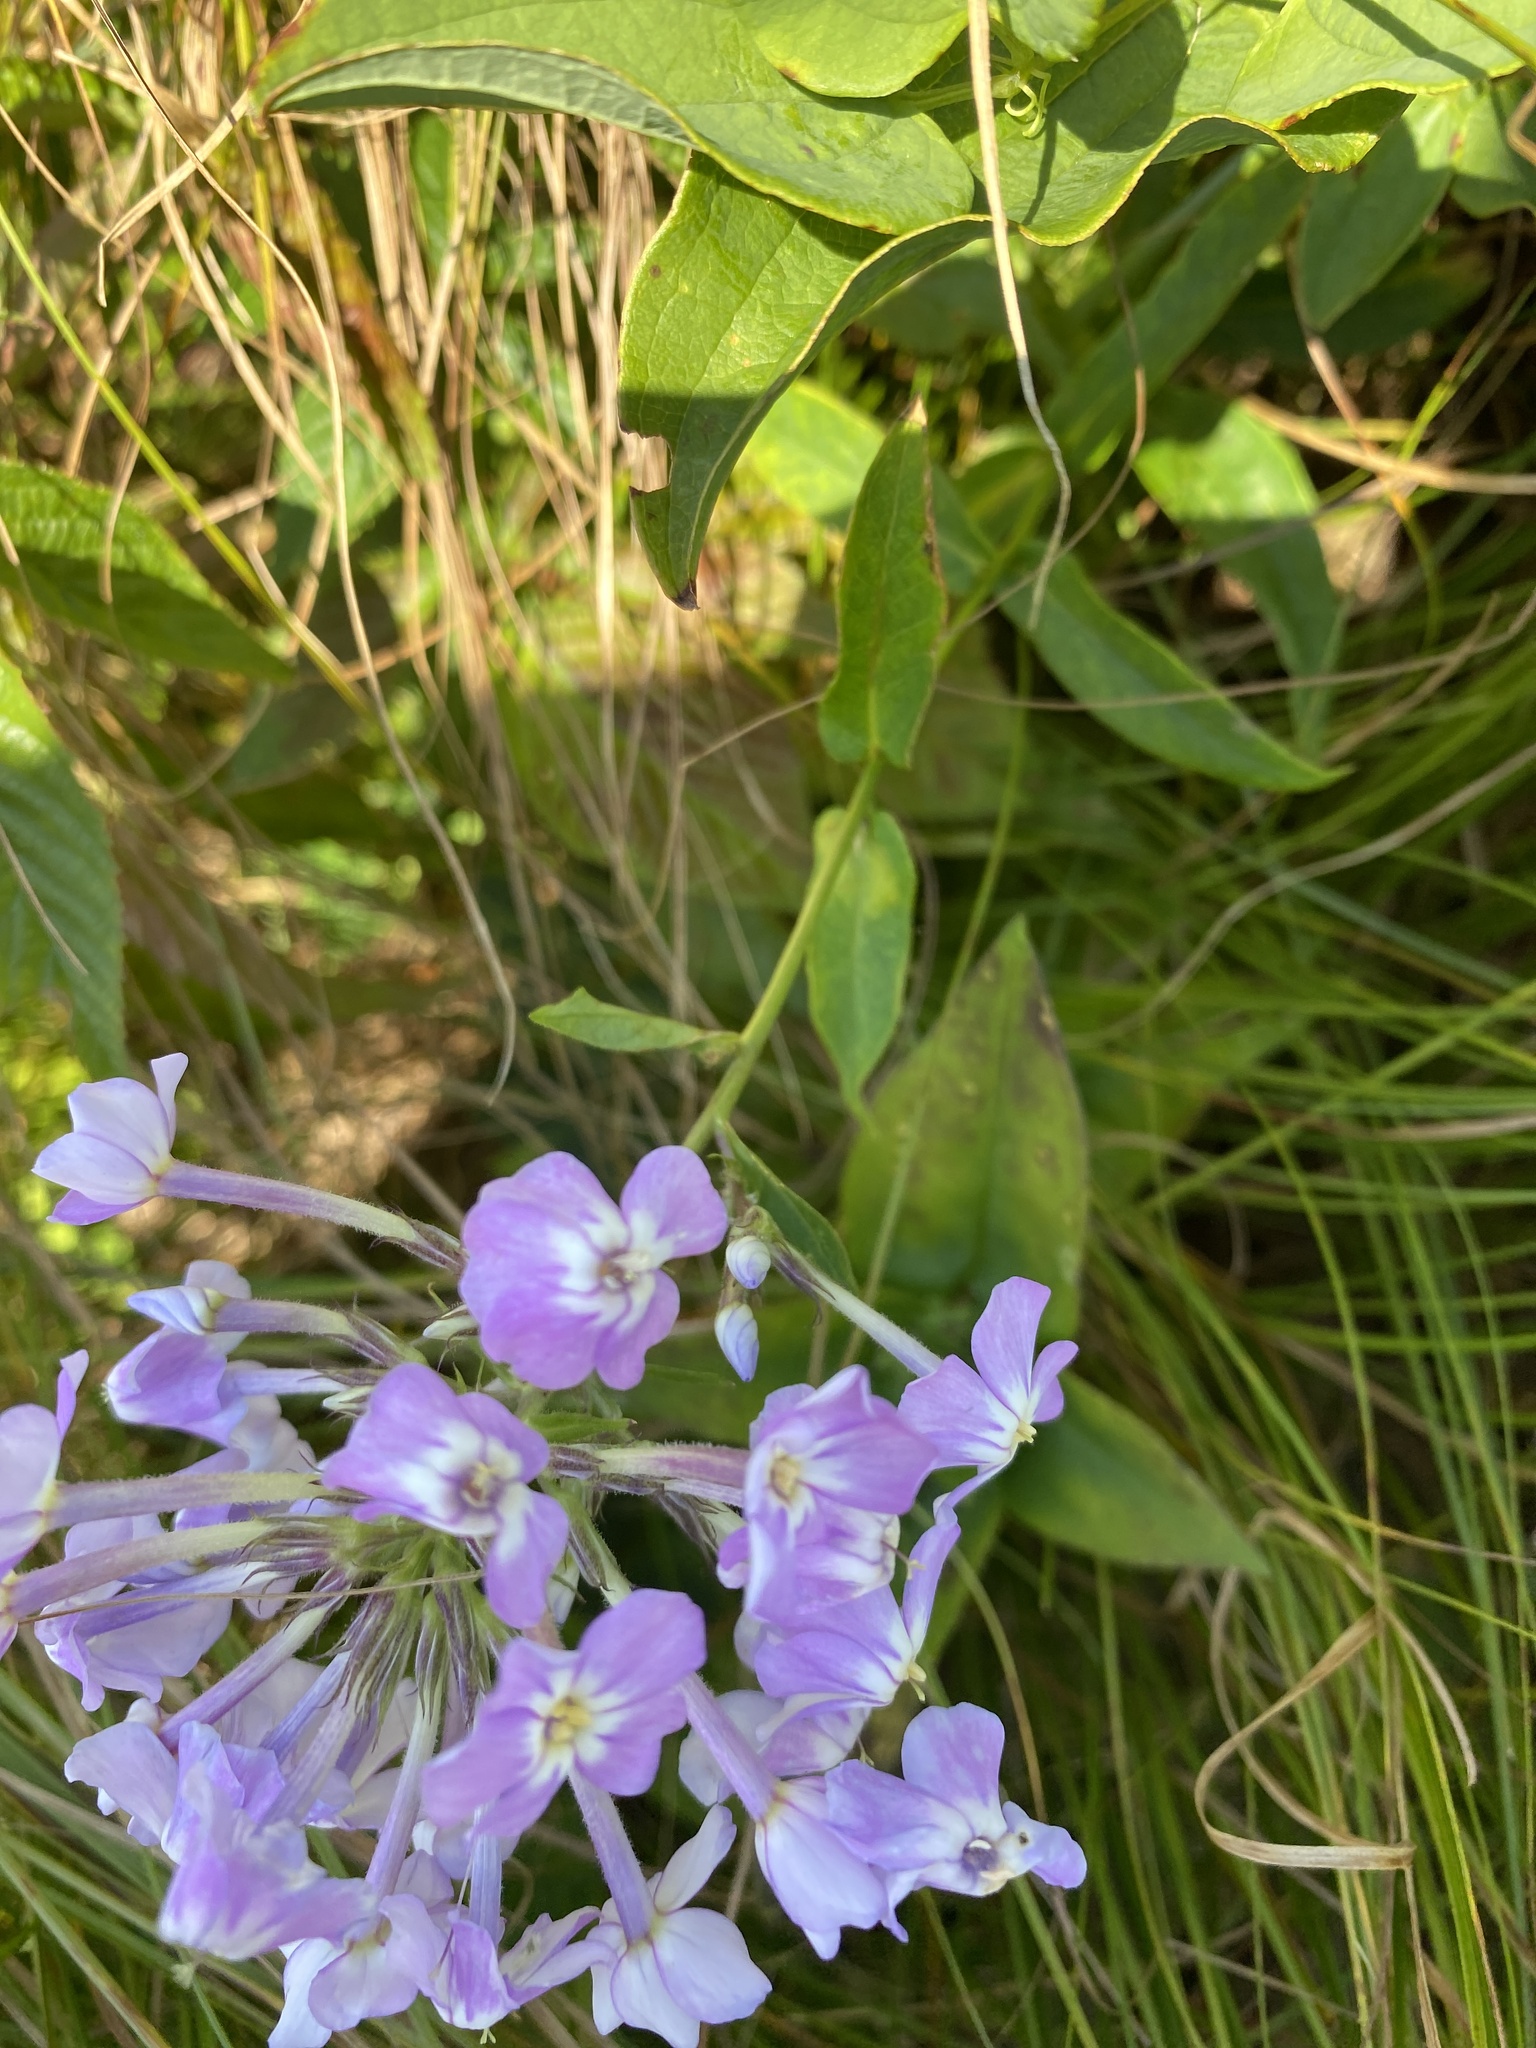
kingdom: Plantae
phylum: Tracheophyta
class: Magnoliopsida
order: Ericales
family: Polemoniaceae
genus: Phlox
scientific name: Phlox paniculata
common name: Fall phlox
